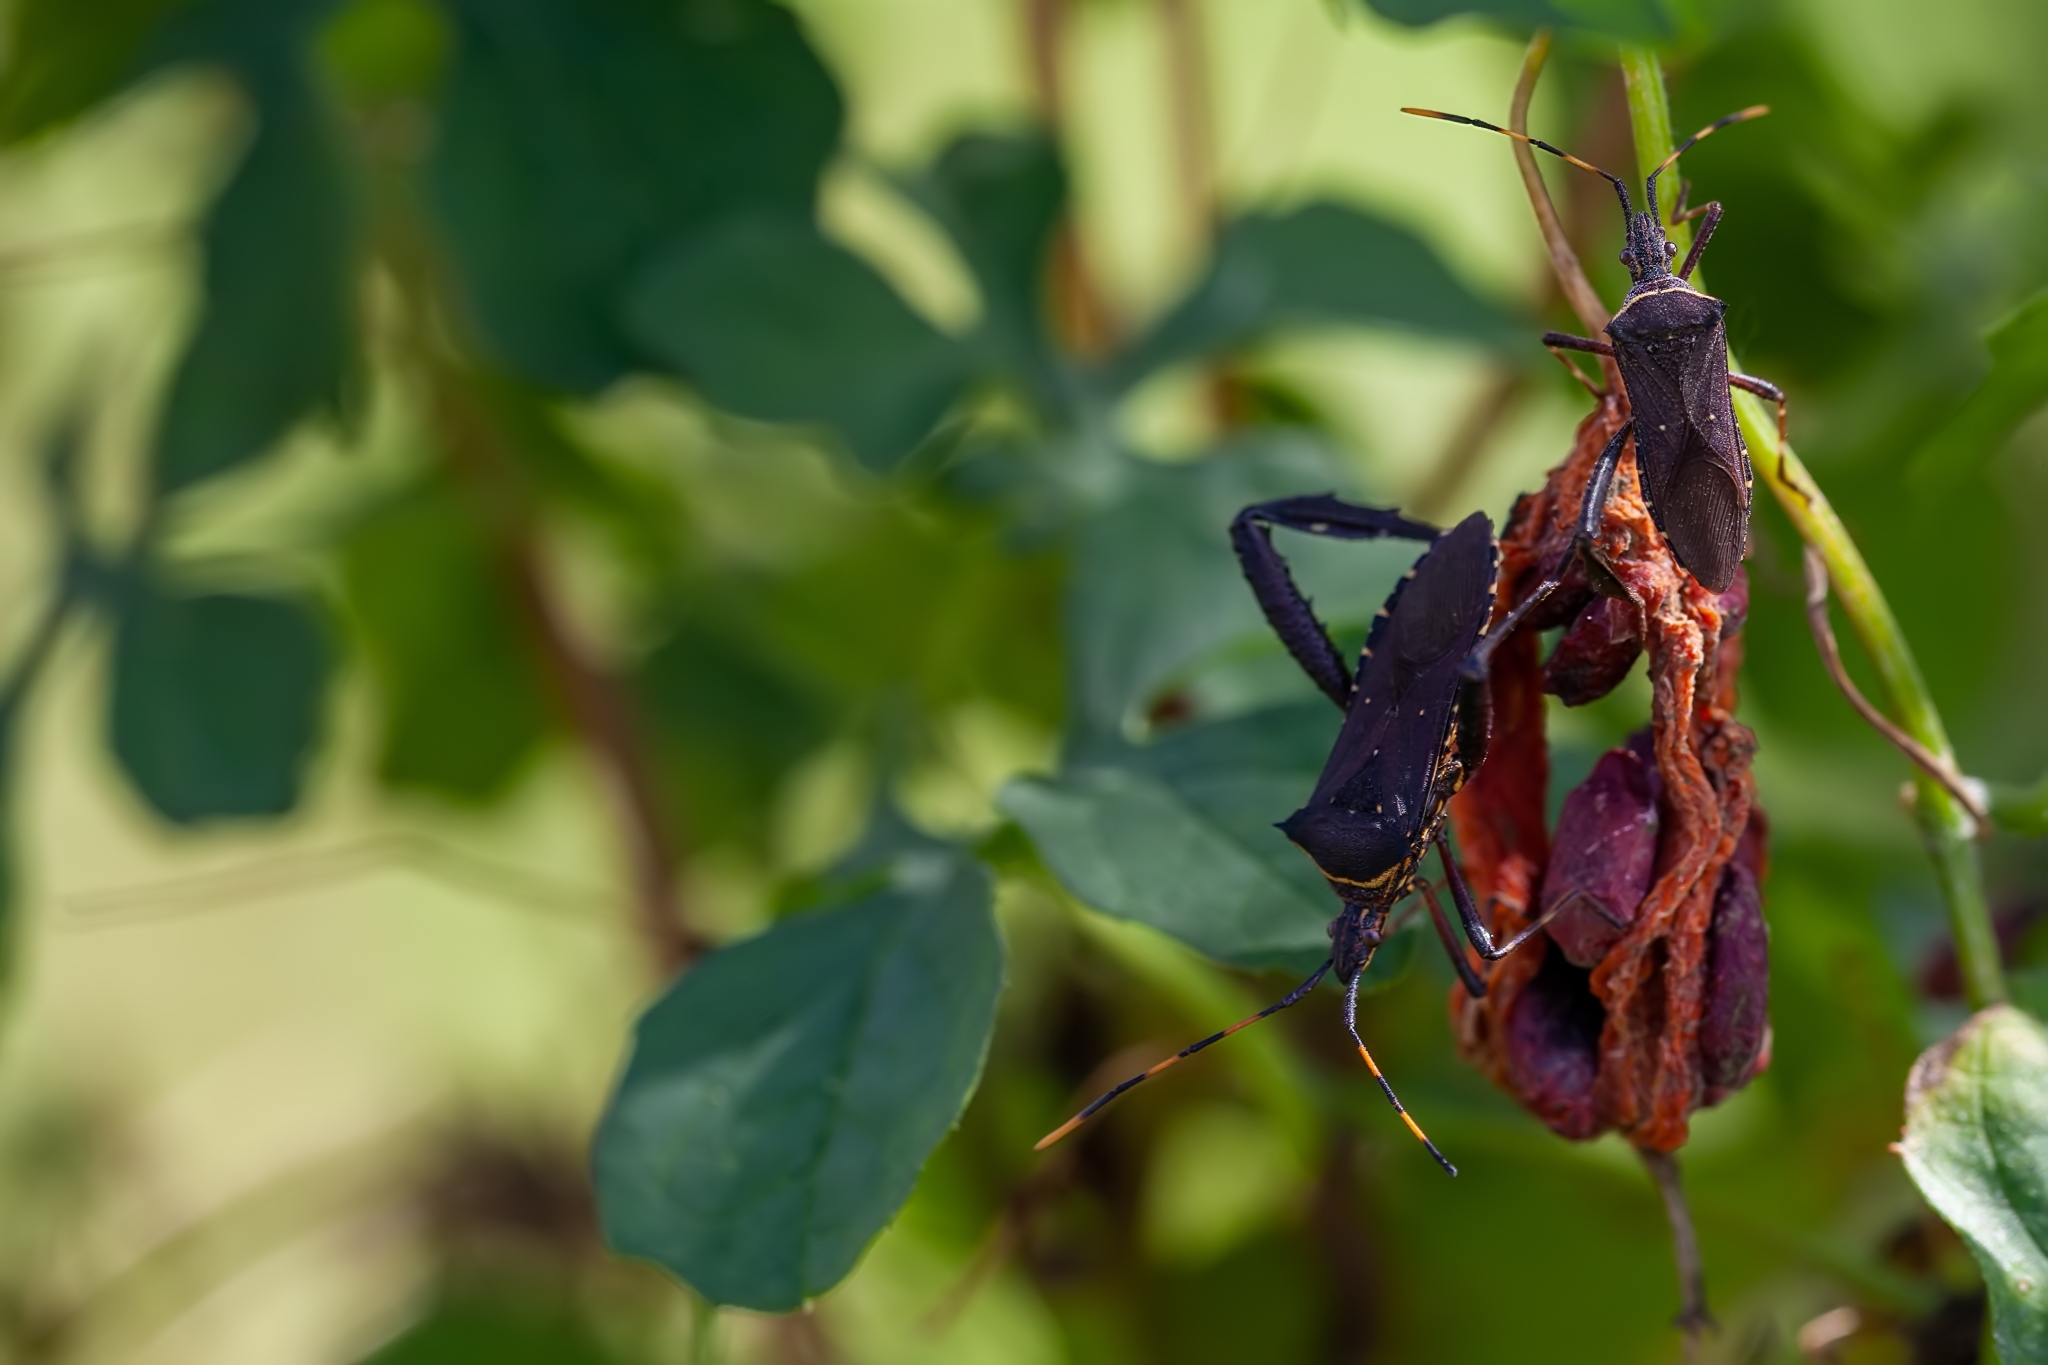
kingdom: Animalia
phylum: Arthropoda
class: Insecta
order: Hemiptera
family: Coreidae
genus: Leptoglossus
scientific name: Leptoglossus gonagra
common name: Citron bug
